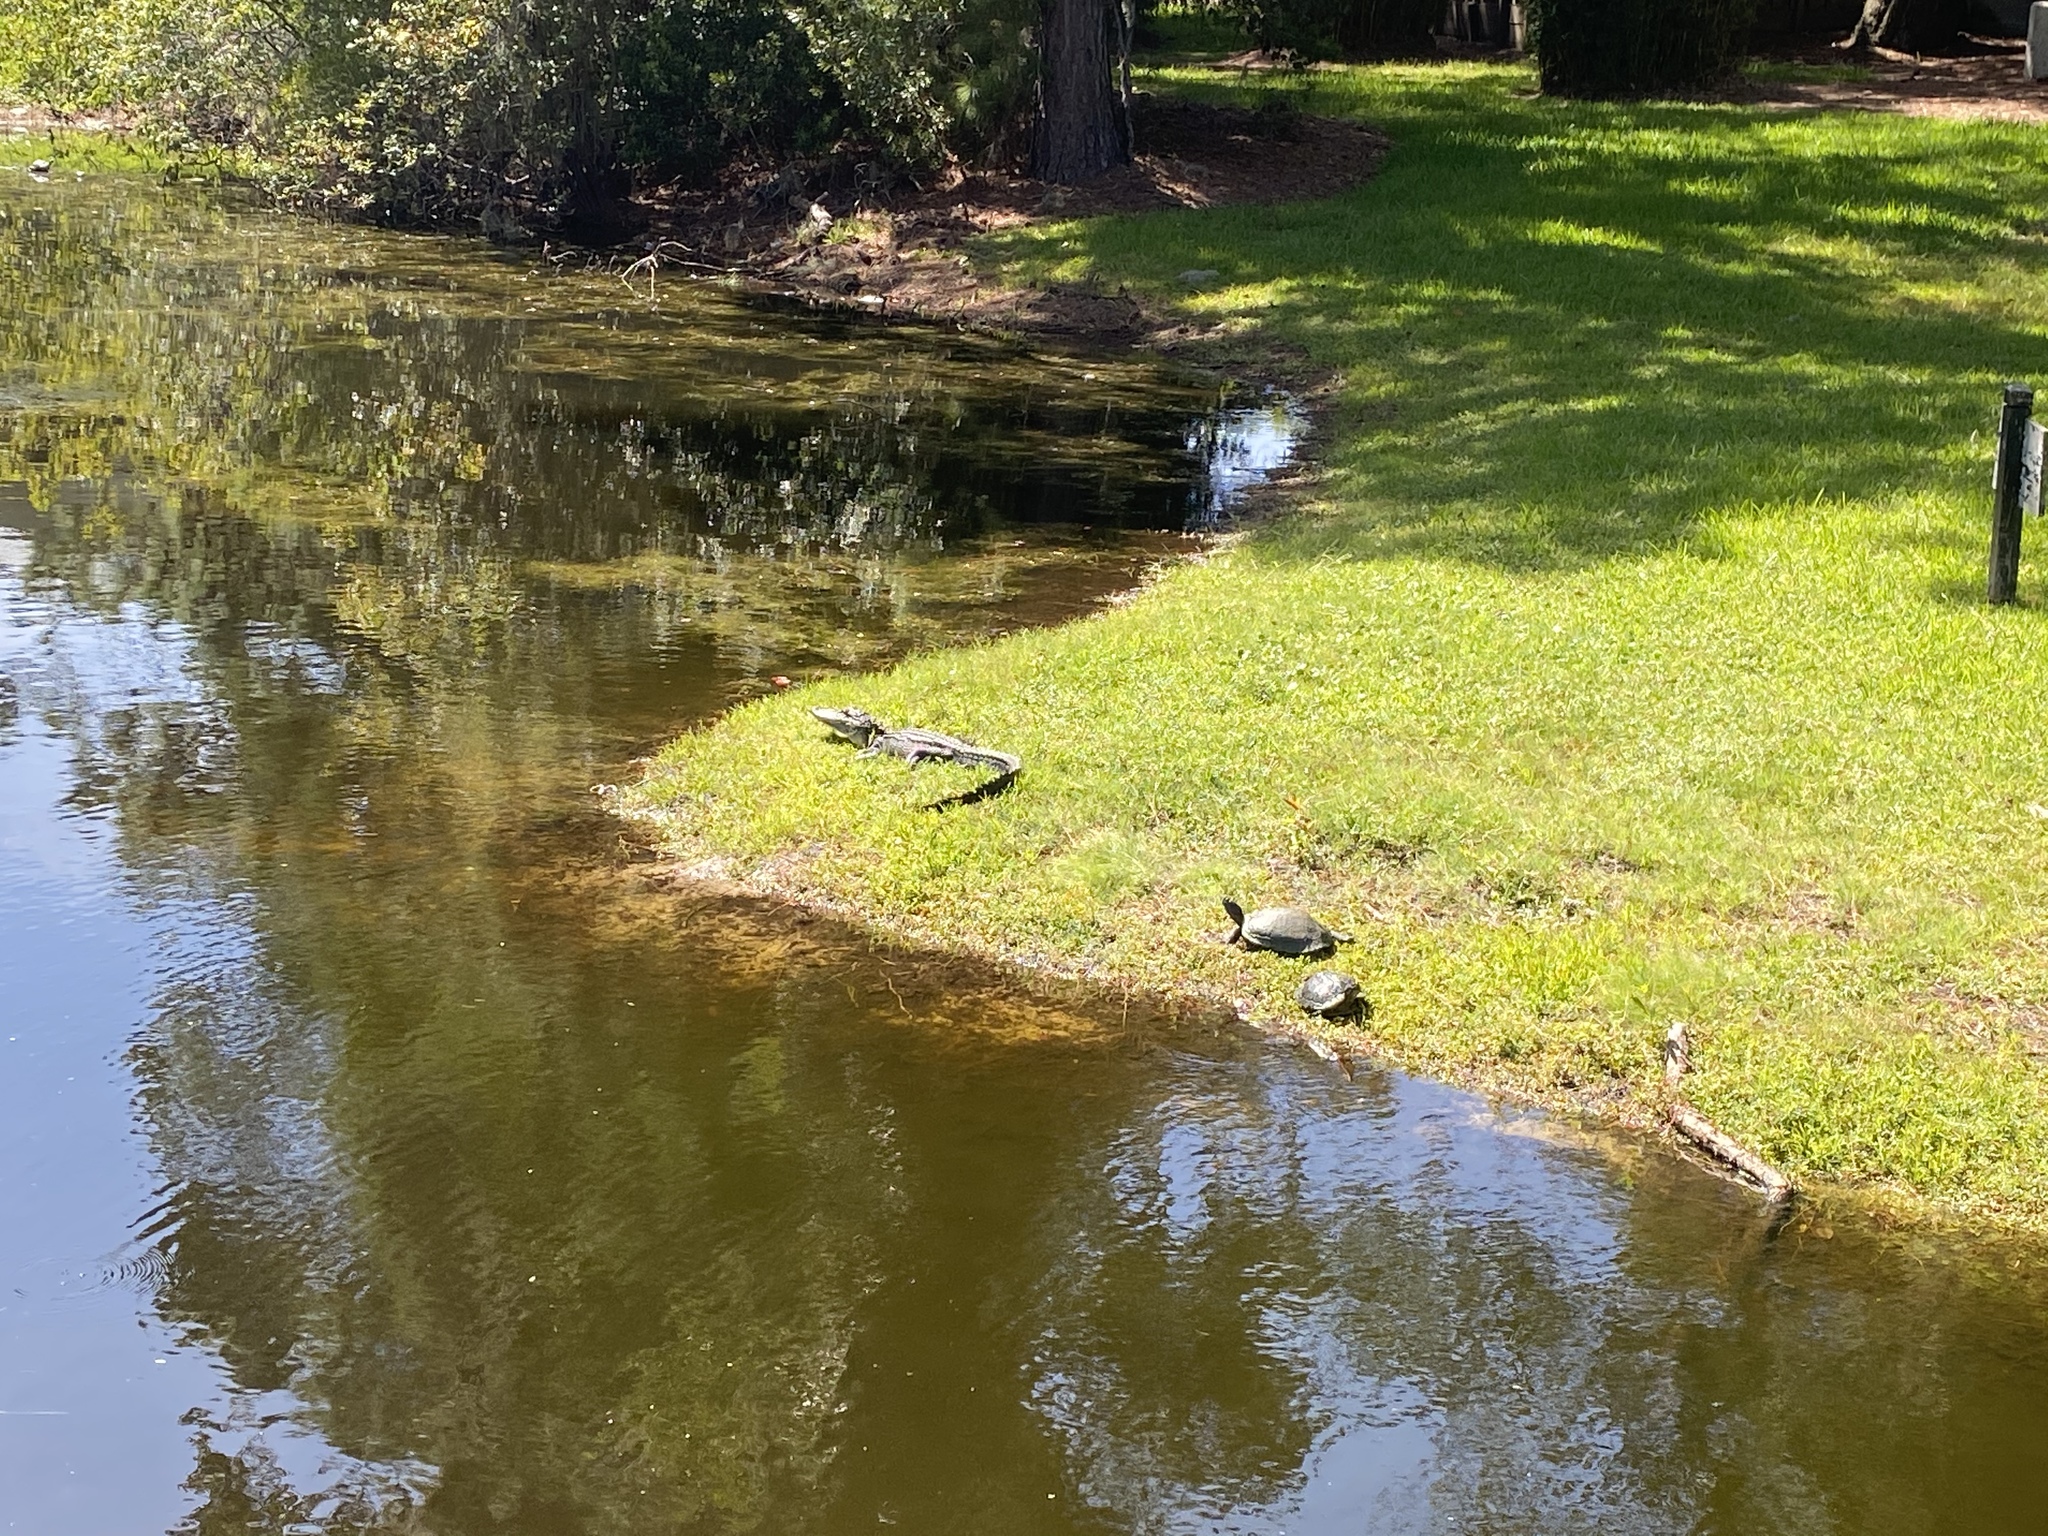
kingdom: Animalia
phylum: Chordata
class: Crocodylia
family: Alligatoridae
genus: Alligator
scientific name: Alligator mississippiensis
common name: American alligator
